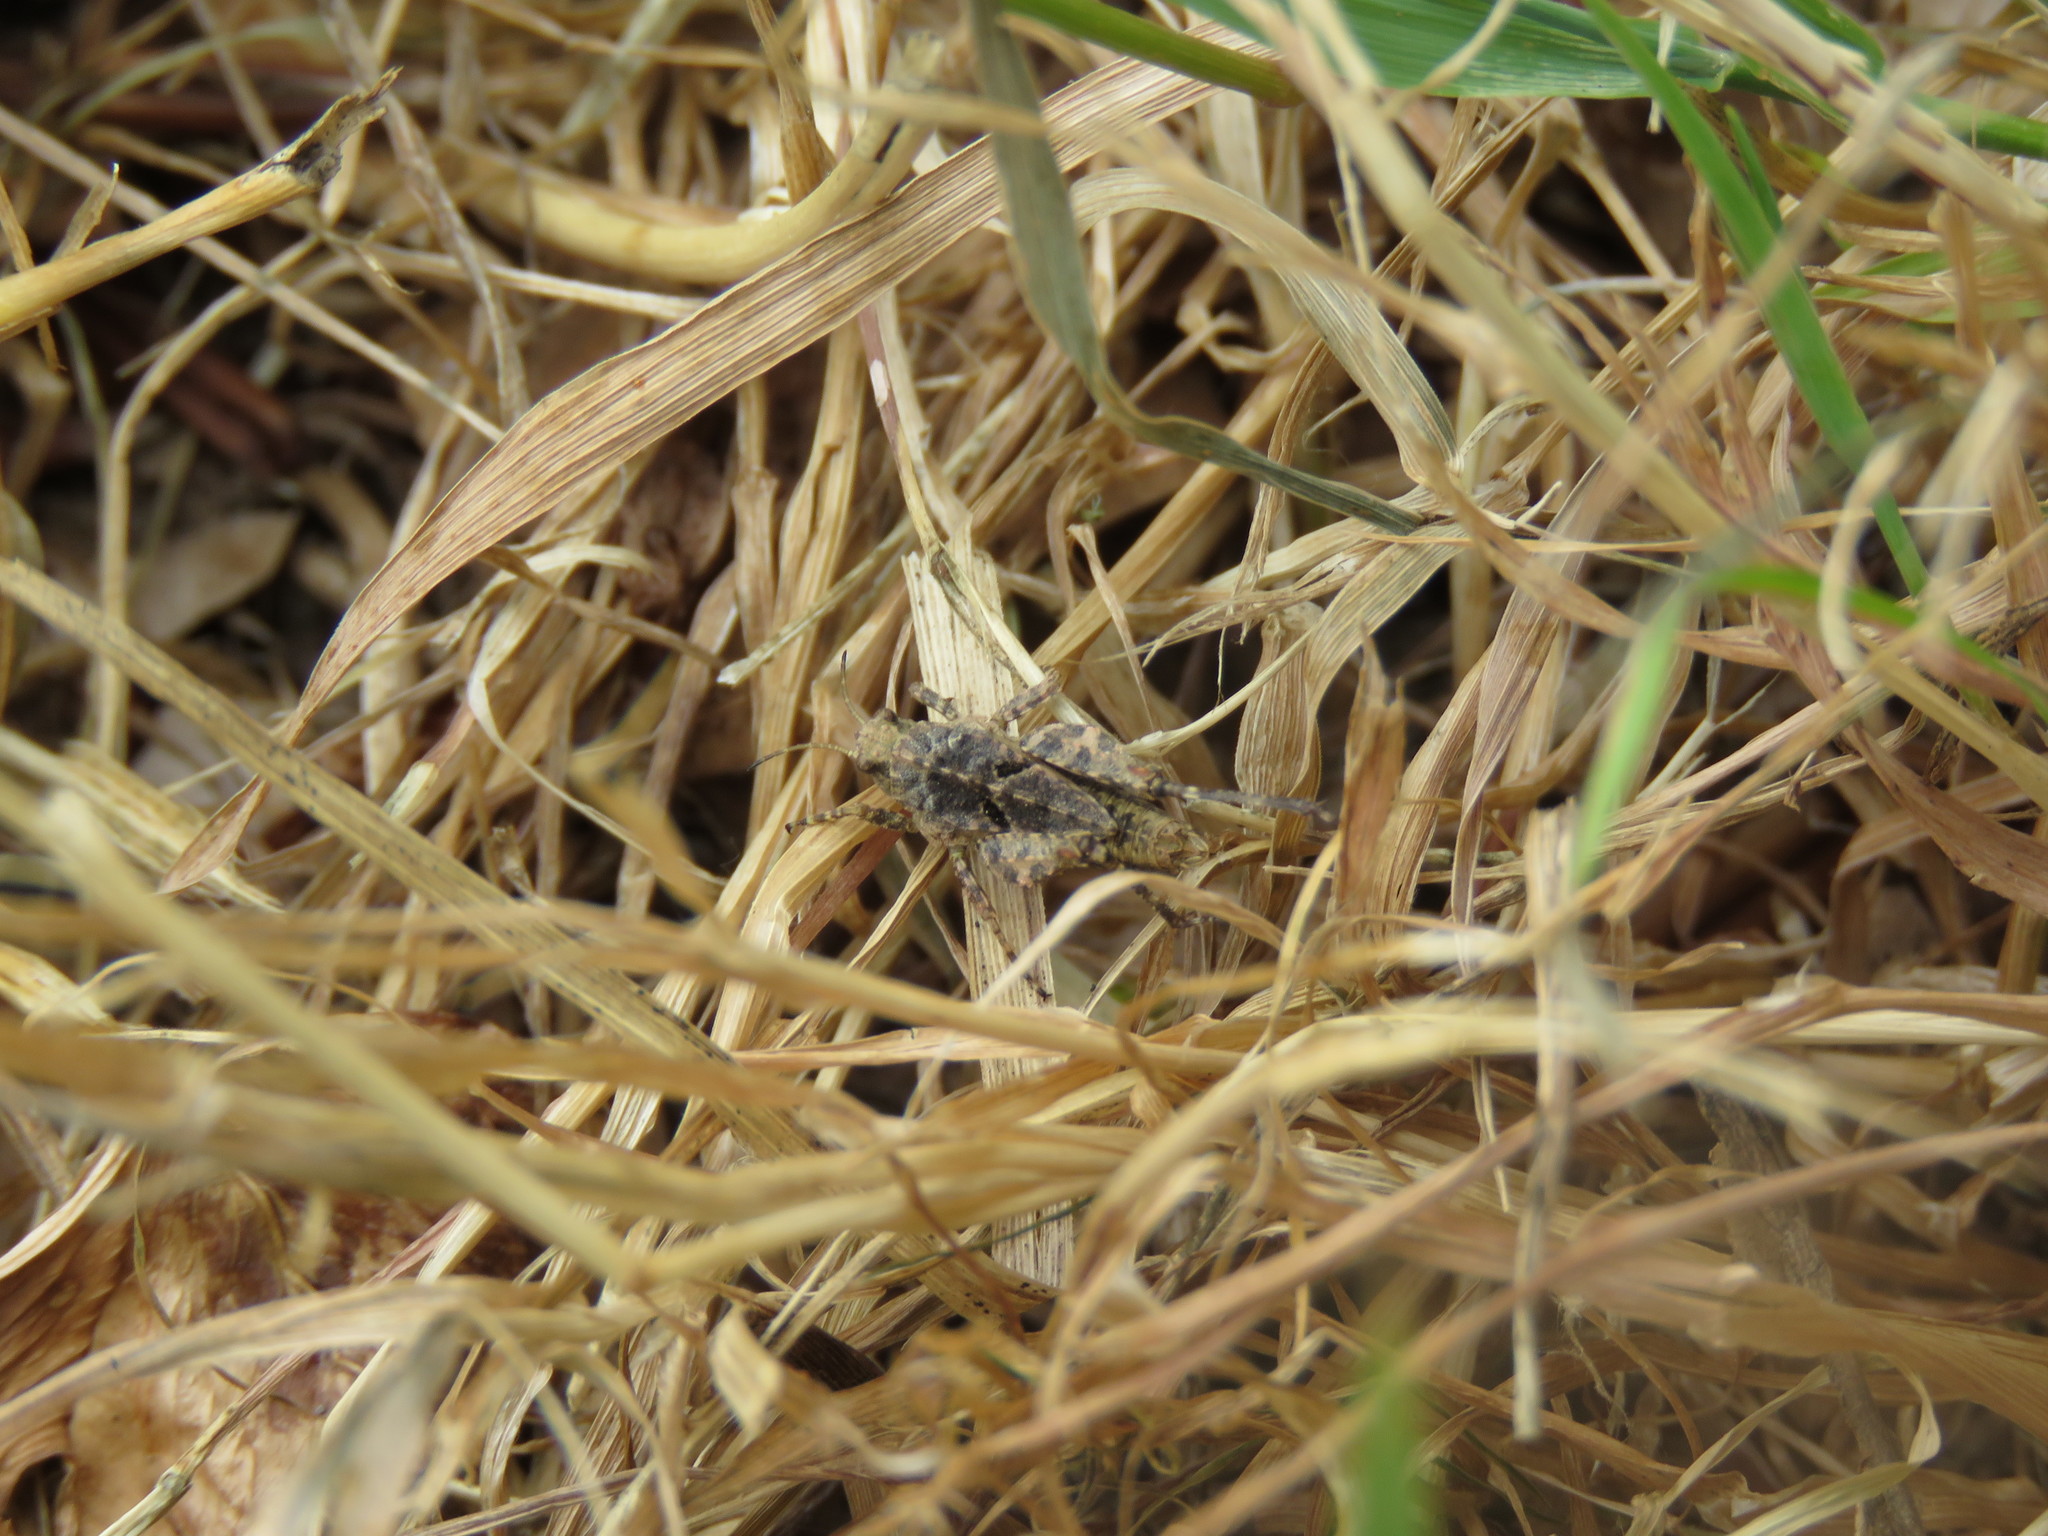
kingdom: Animalia
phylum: Arthropoda
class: Insecta
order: Orthoptera
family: Tetrigidae
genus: Tetrix
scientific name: Tetrix transsylvanica
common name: Transsylvanian wingless groundhopper
